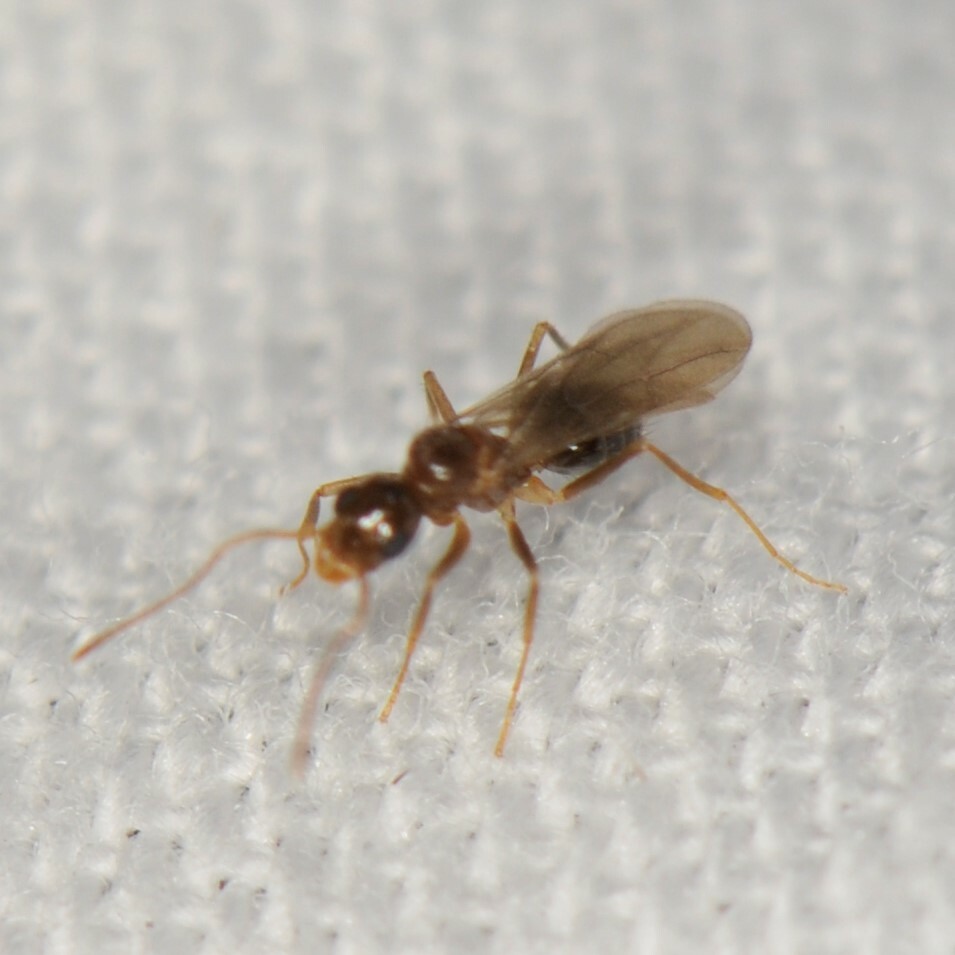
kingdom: Animalia
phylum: Arthropoda
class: Insecta
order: Hymenoptera
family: Formicidae
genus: Nylanderia
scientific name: Nylanderia
